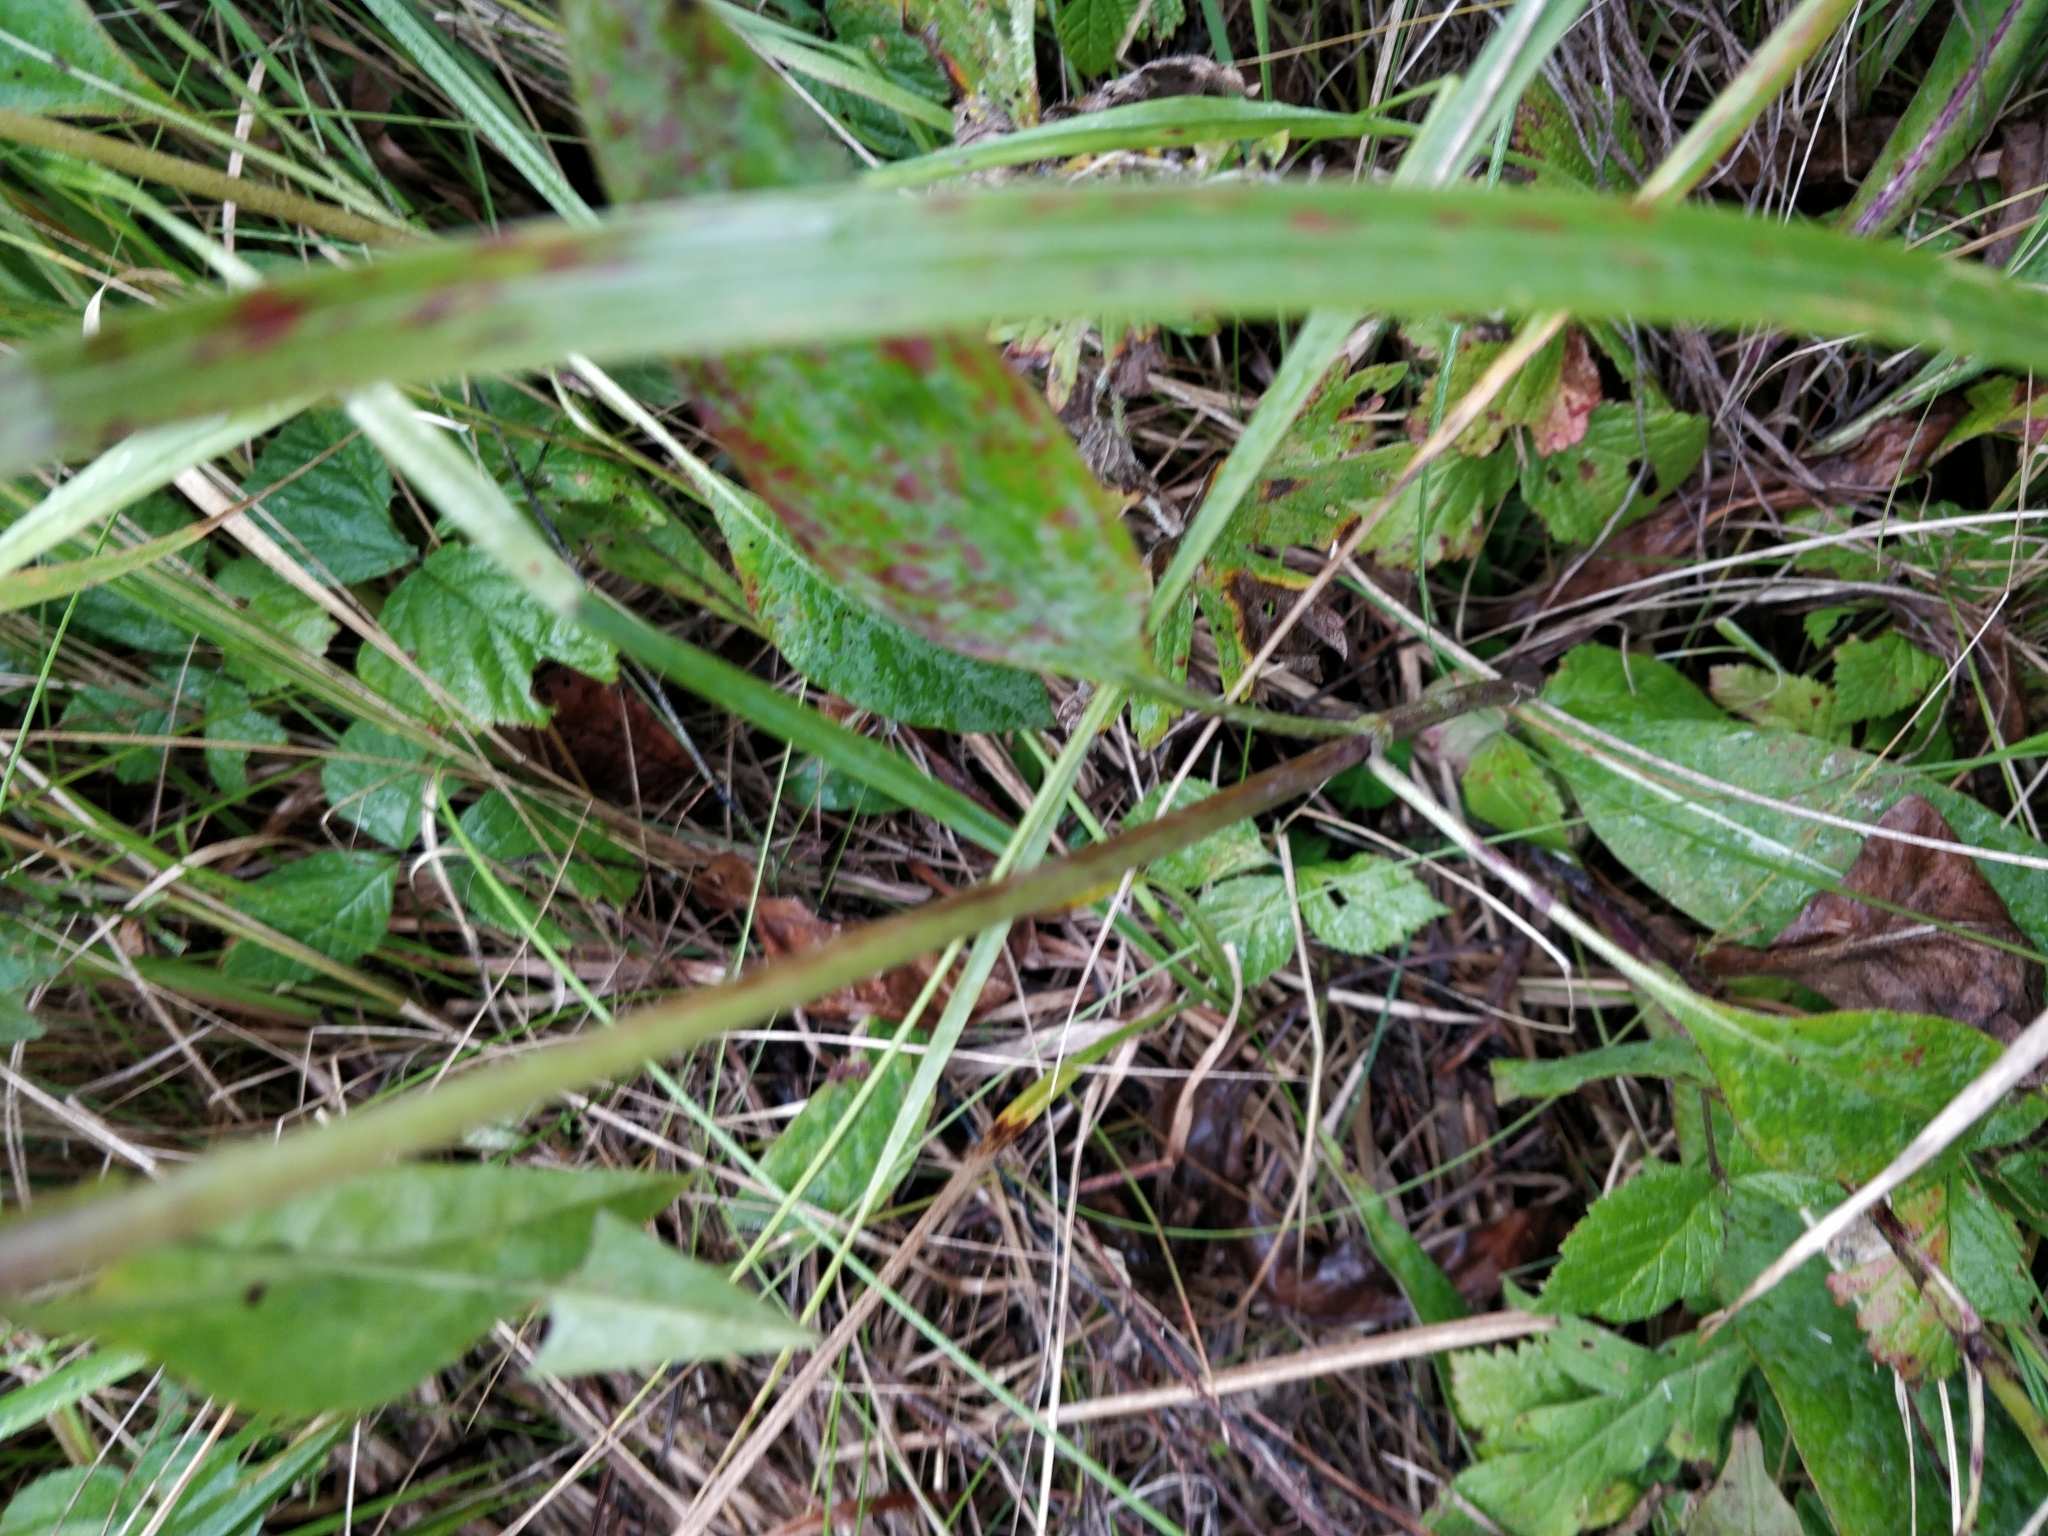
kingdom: Plantae
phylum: Tracheophyta
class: Magnoliopsida
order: Dipsacales
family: Caprifoliaceae
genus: Succisa
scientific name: Succisa pratensis
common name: Devil's-bit
